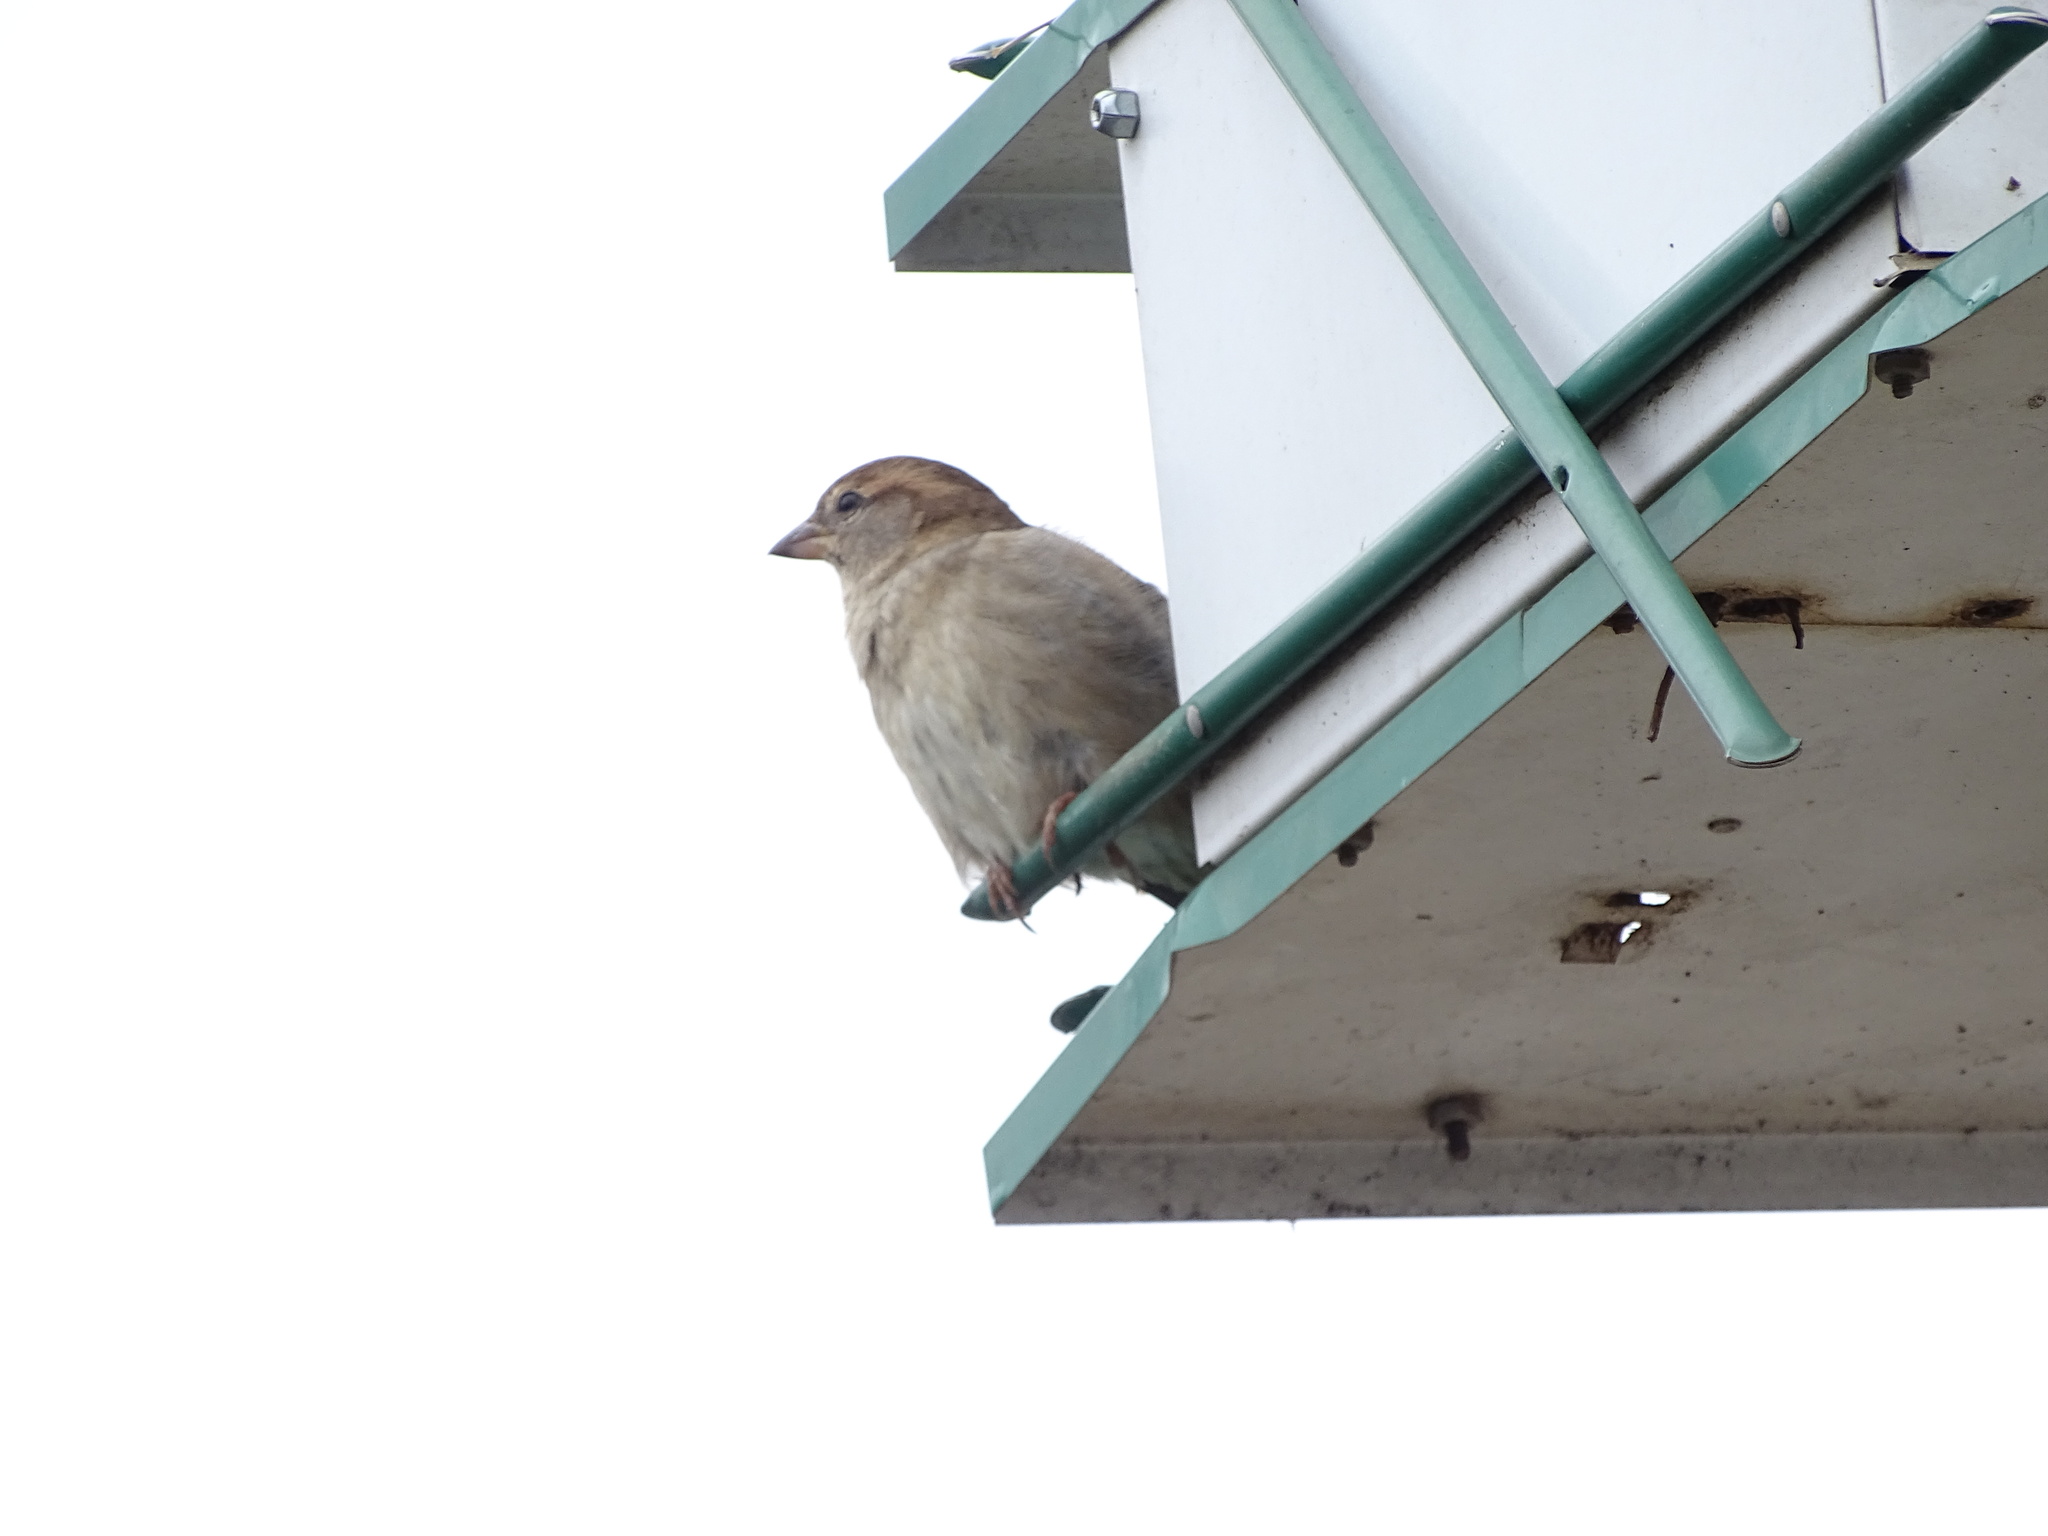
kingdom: Animalia
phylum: Chordata
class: Aves
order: Passeriformes
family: Passeridae
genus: Passer
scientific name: Passer domesticus
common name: House sparrow
